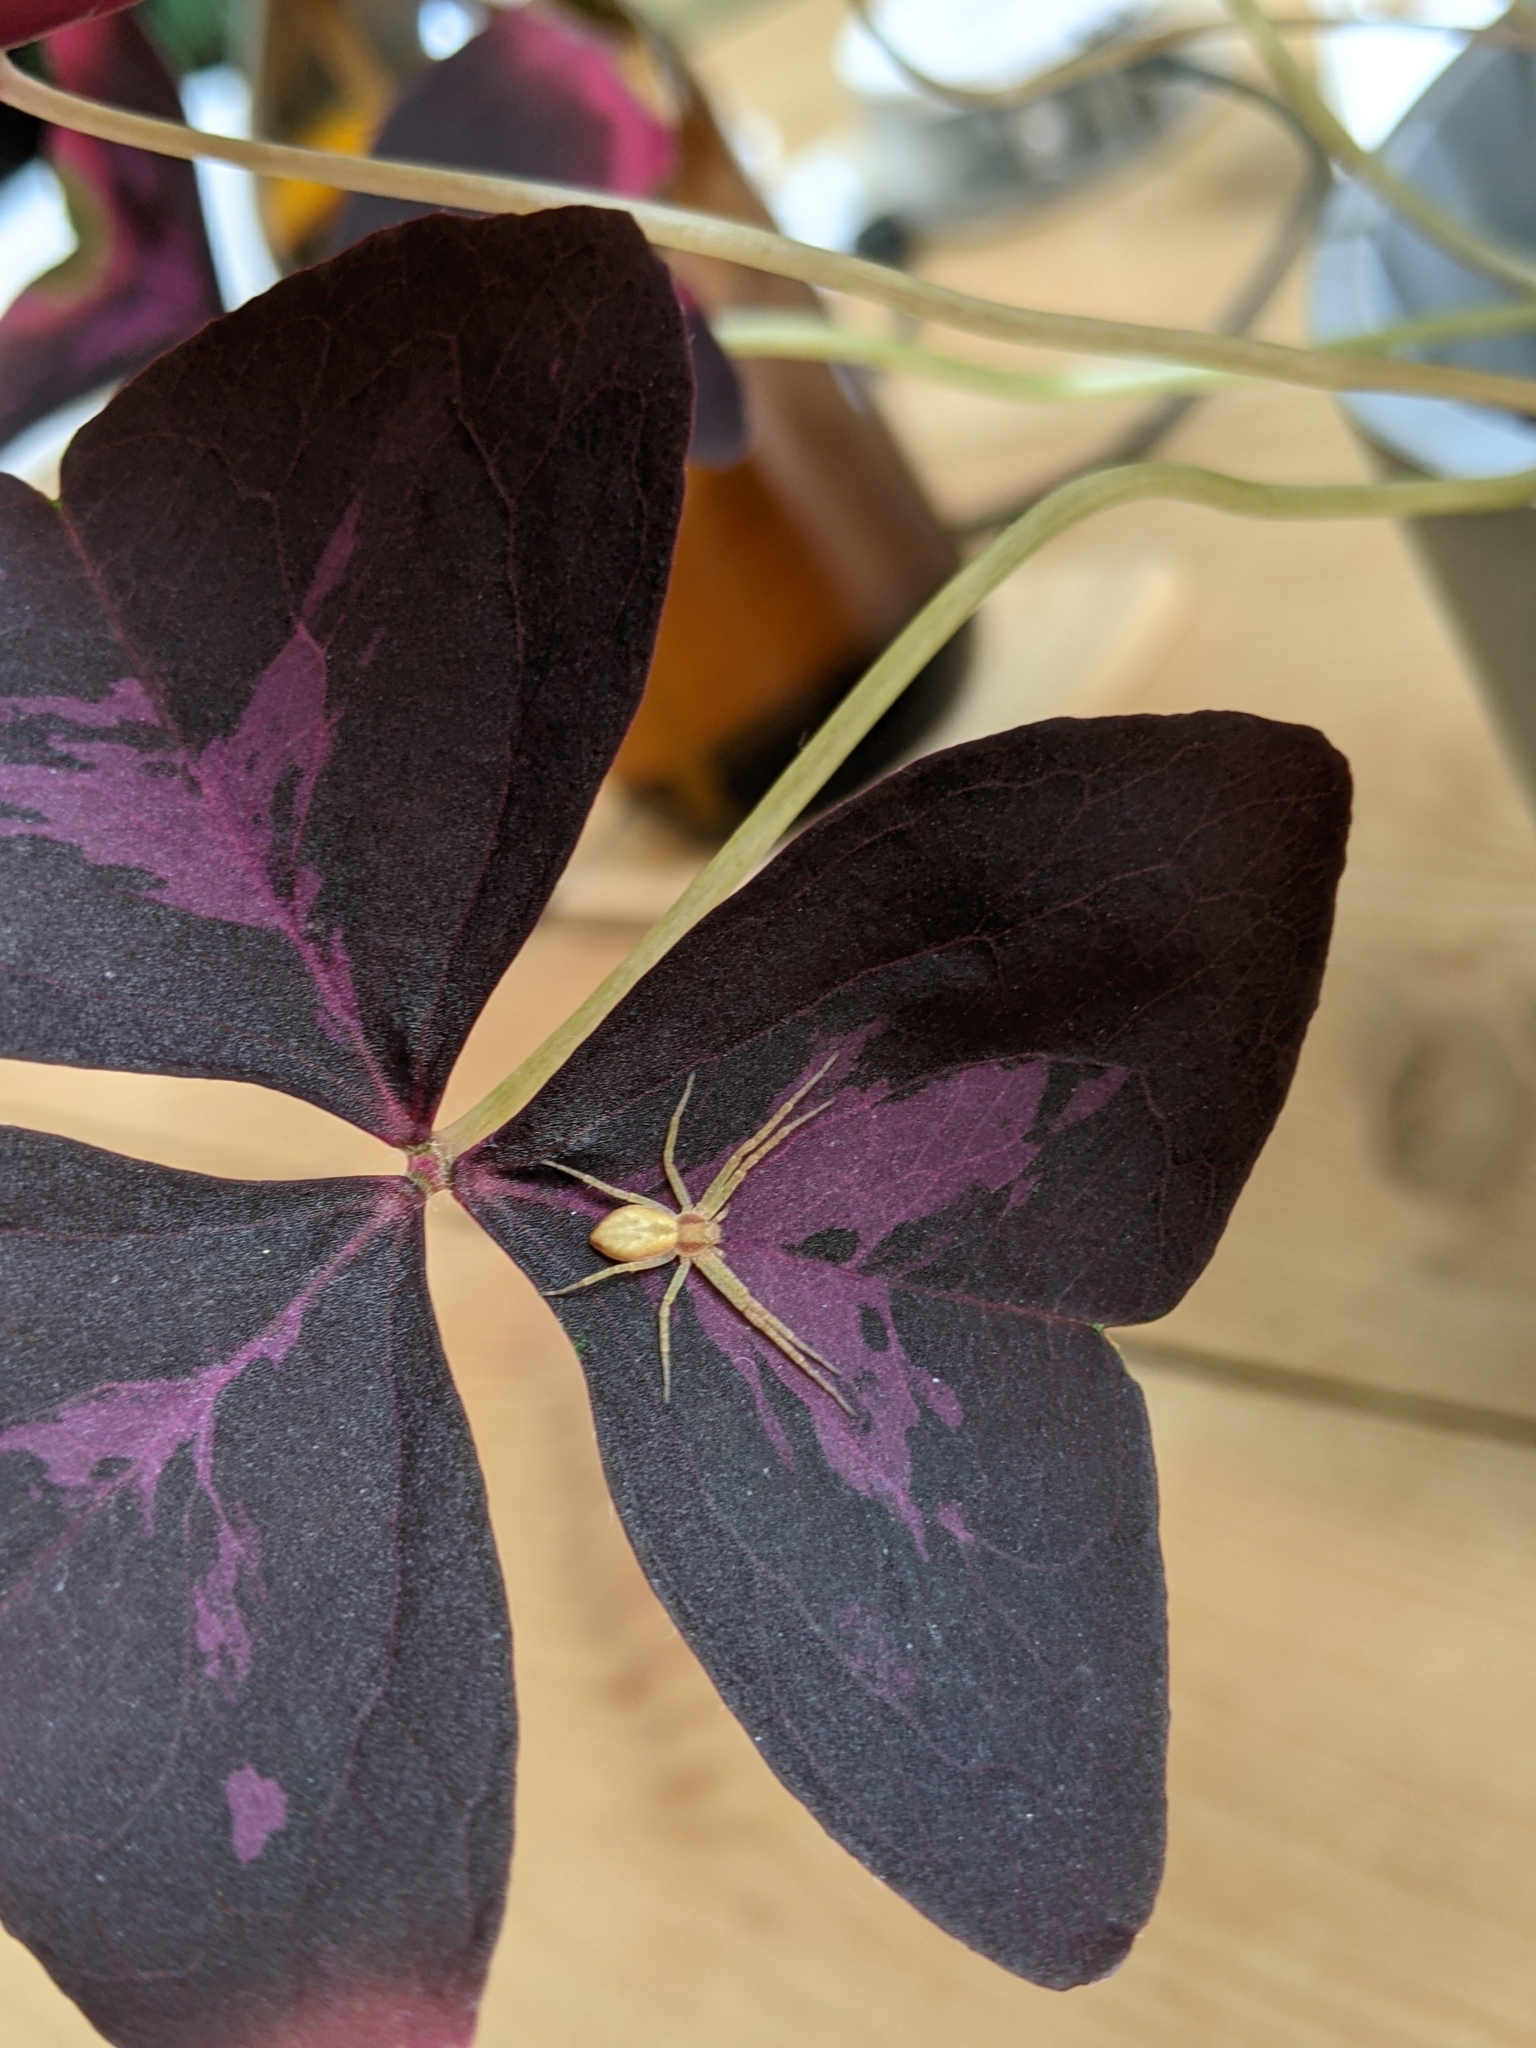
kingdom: Animalia
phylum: Arthropoda
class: Arachnida
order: Araneae
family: Philodromidae
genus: Philodromus
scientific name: Philodromus
